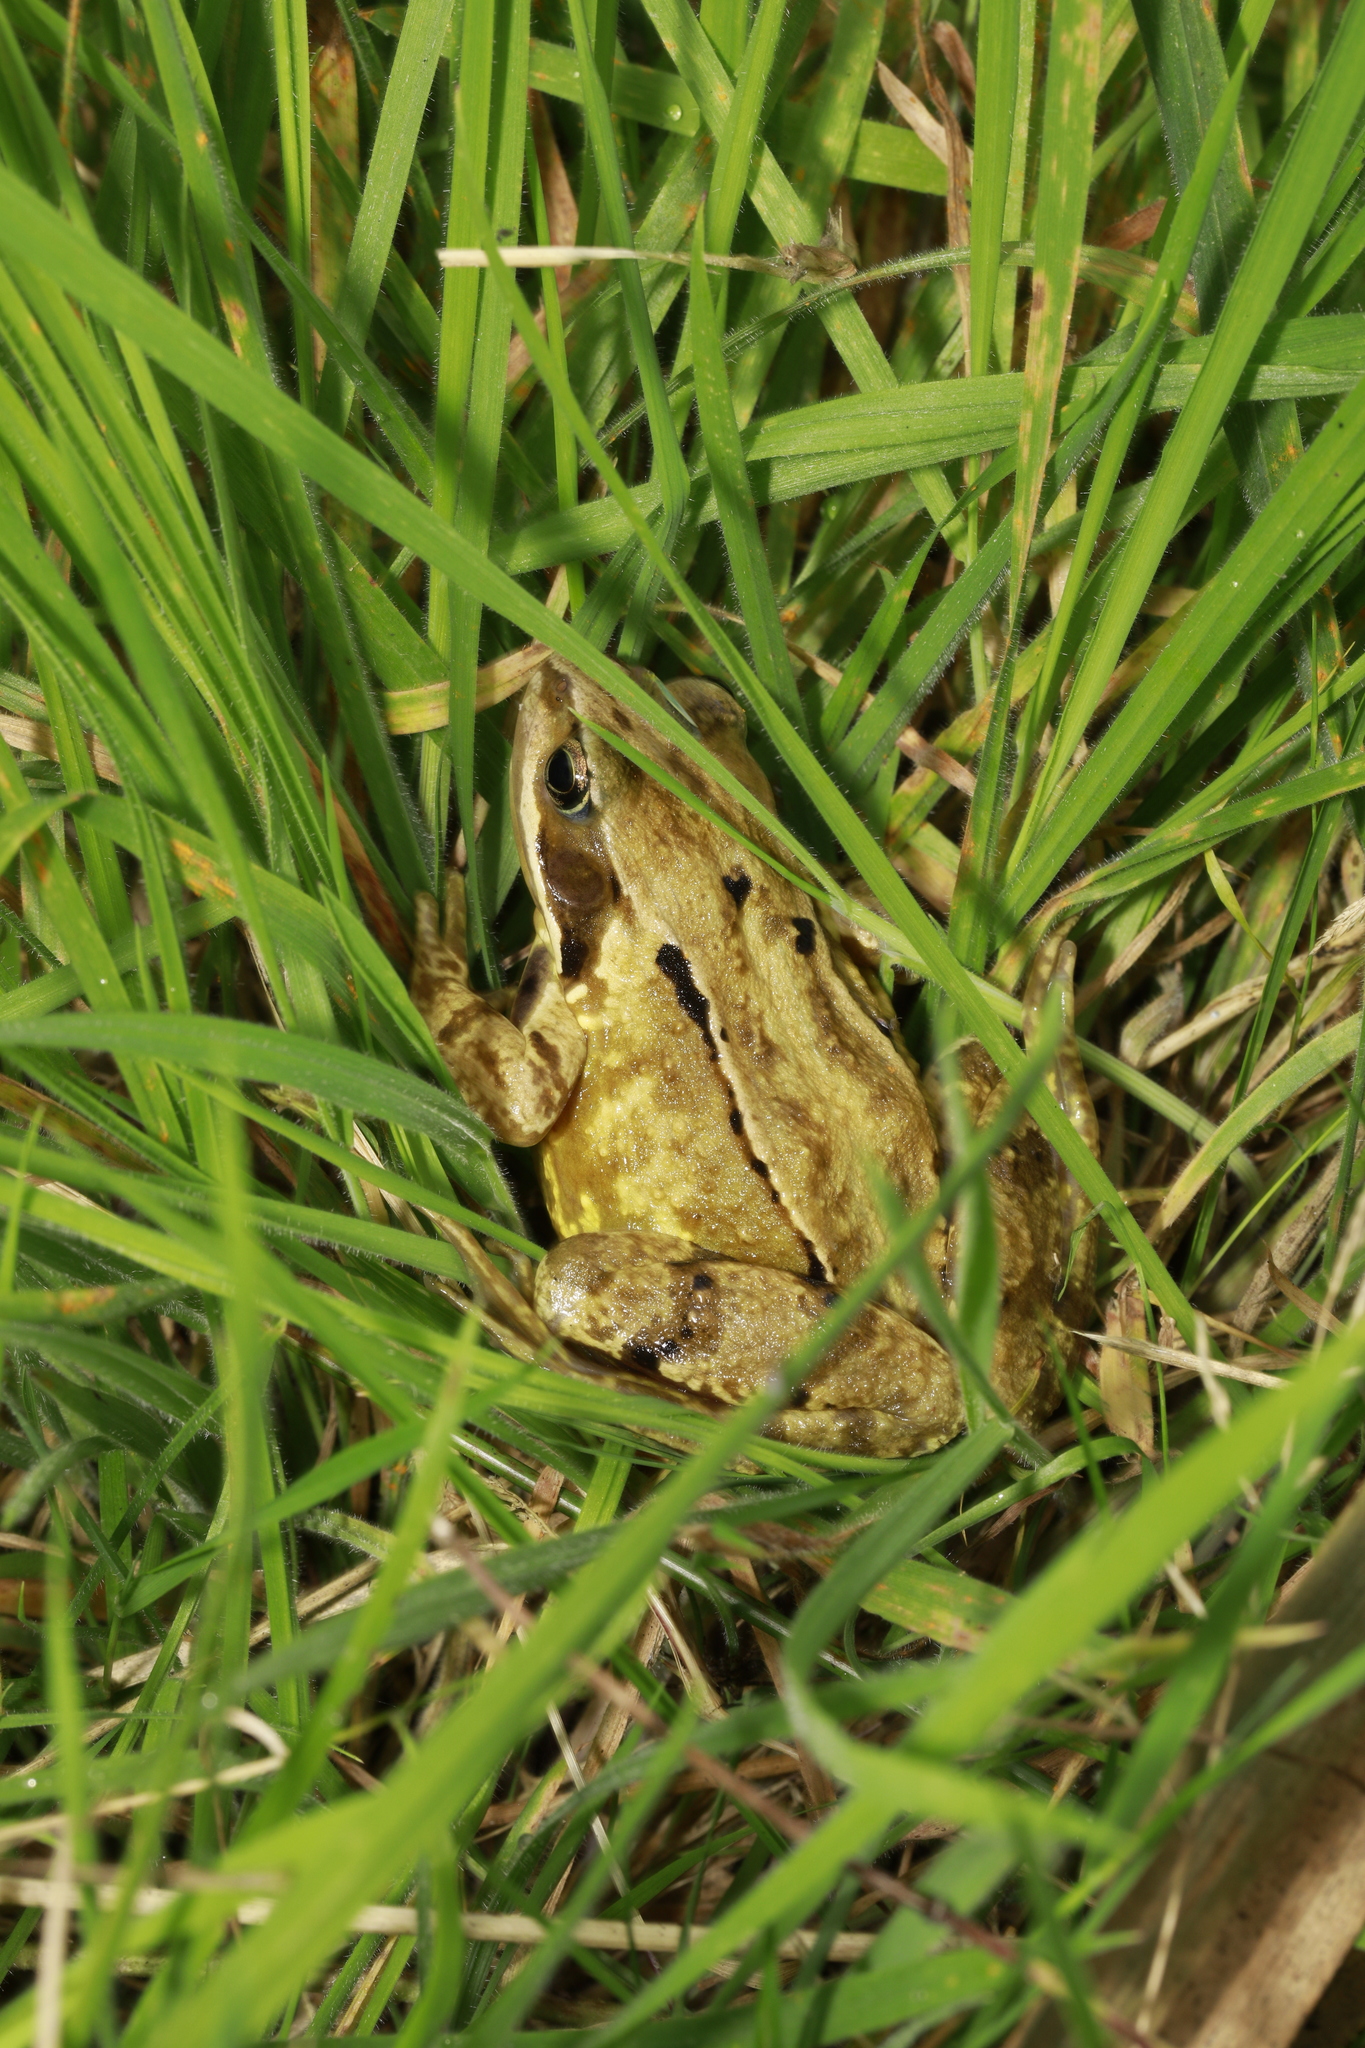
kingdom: Animalia
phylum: Chordata
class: Amphibia
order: Anura
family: Ranidae
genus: Rana
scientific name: Rana temporaria
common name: Common frog
